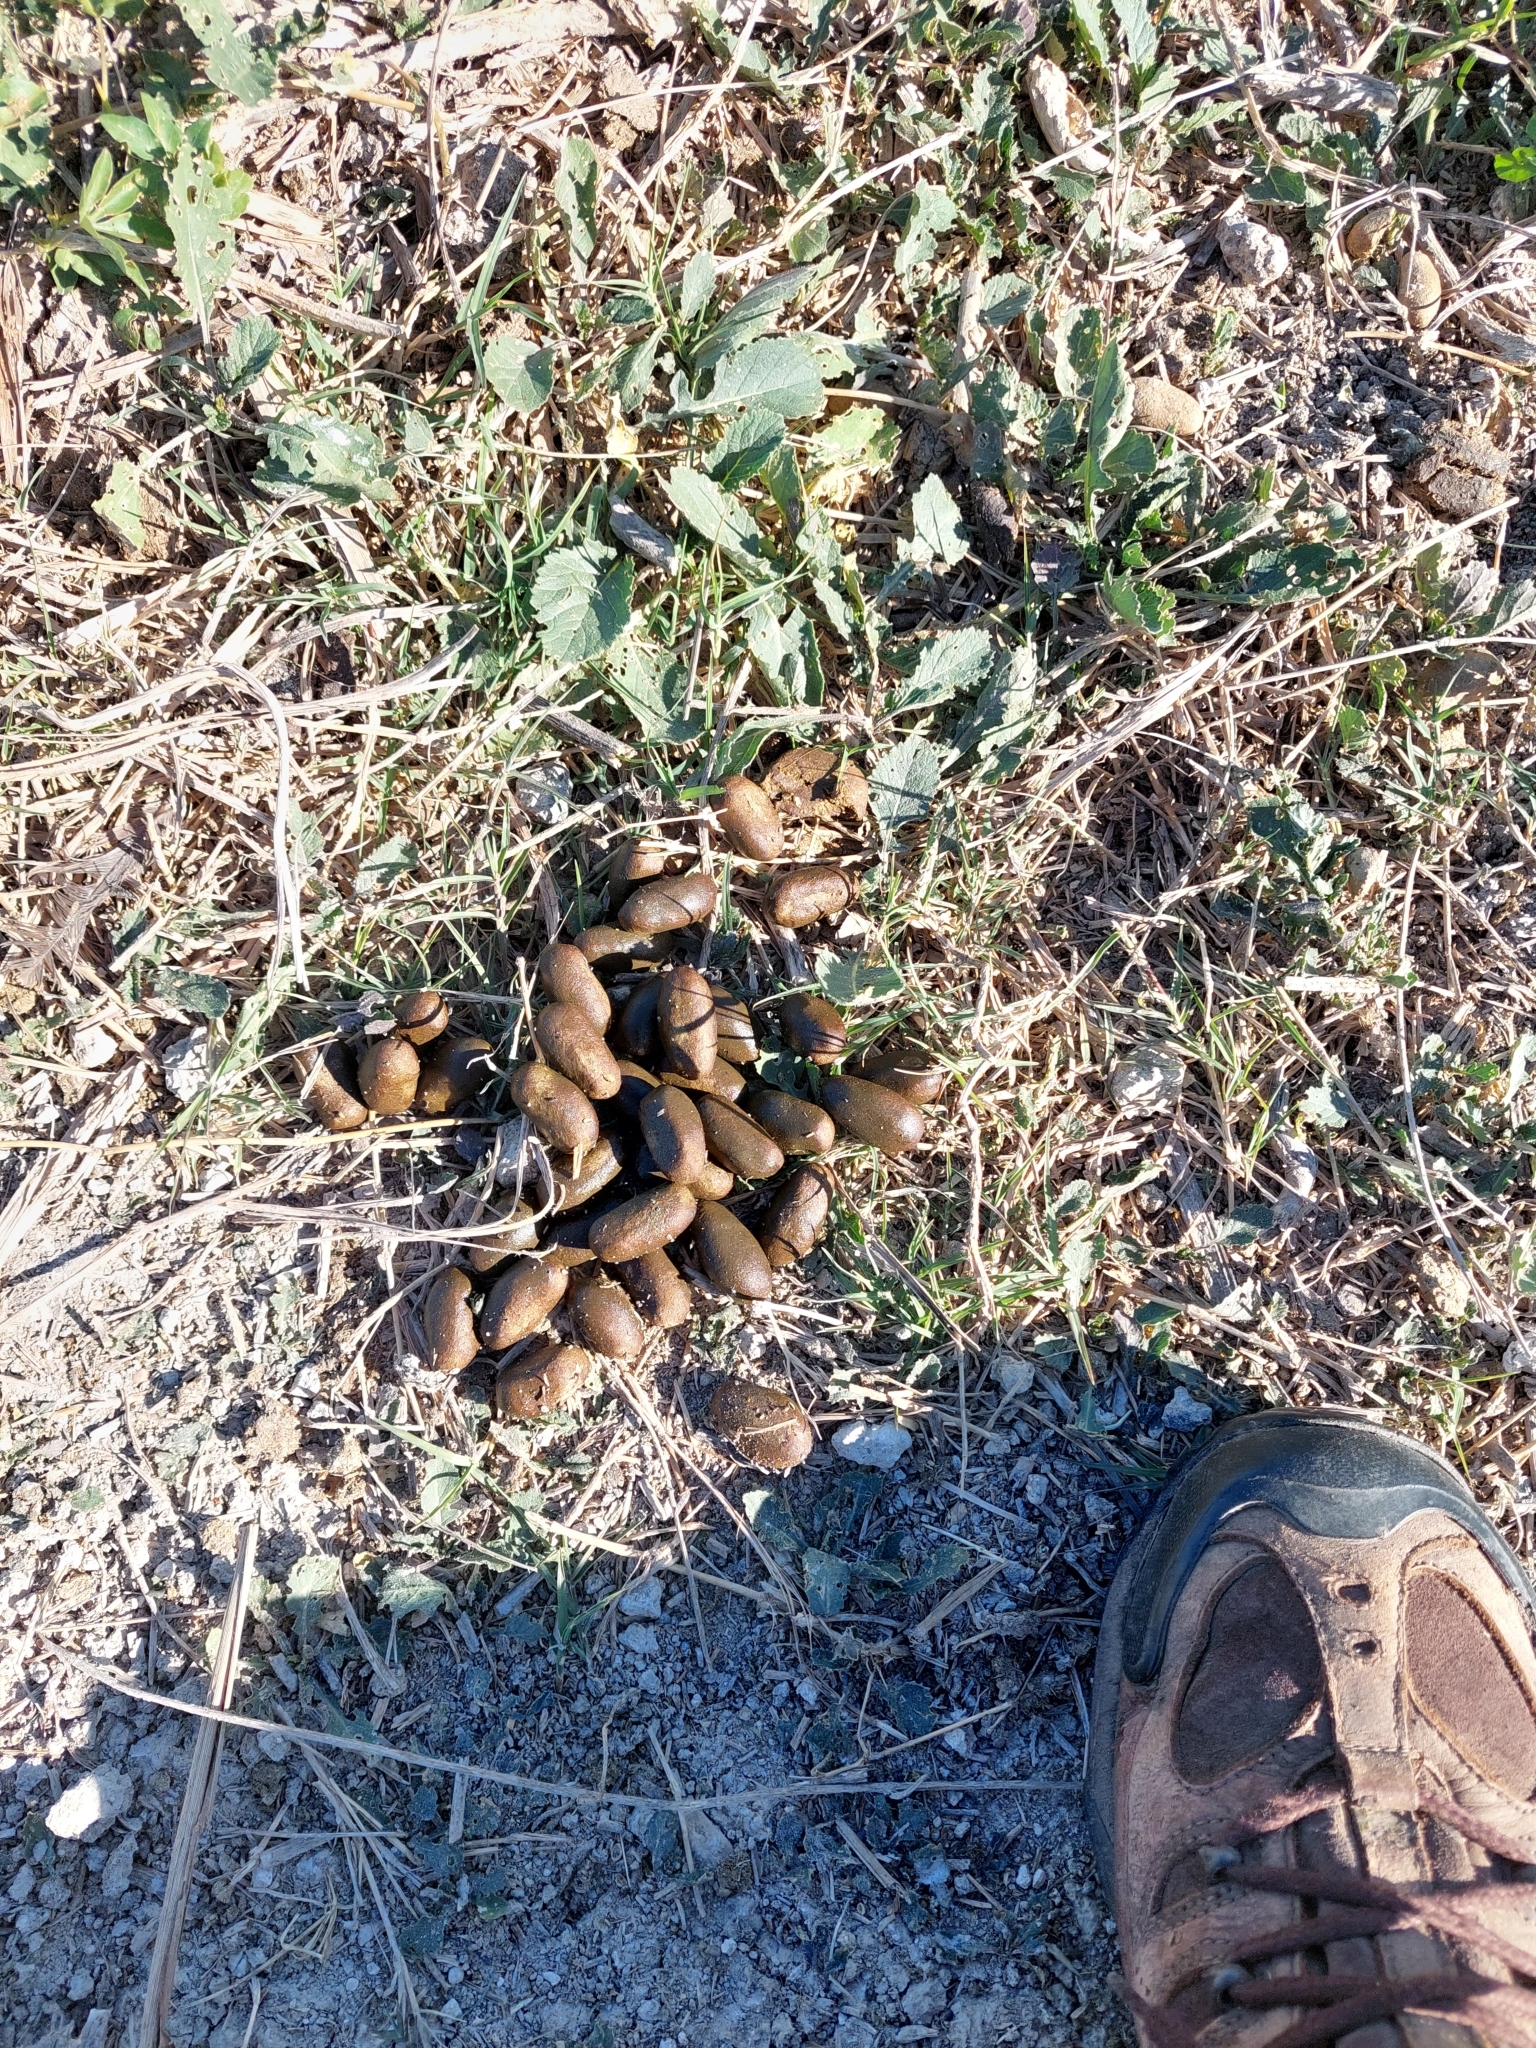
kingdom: Animalia
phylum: Chordata
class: Mammalia
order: Rodentia
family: Caviidae
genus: Hydrochoerus
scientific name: Hydrochoerus hydrochaeris
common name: Capybara
